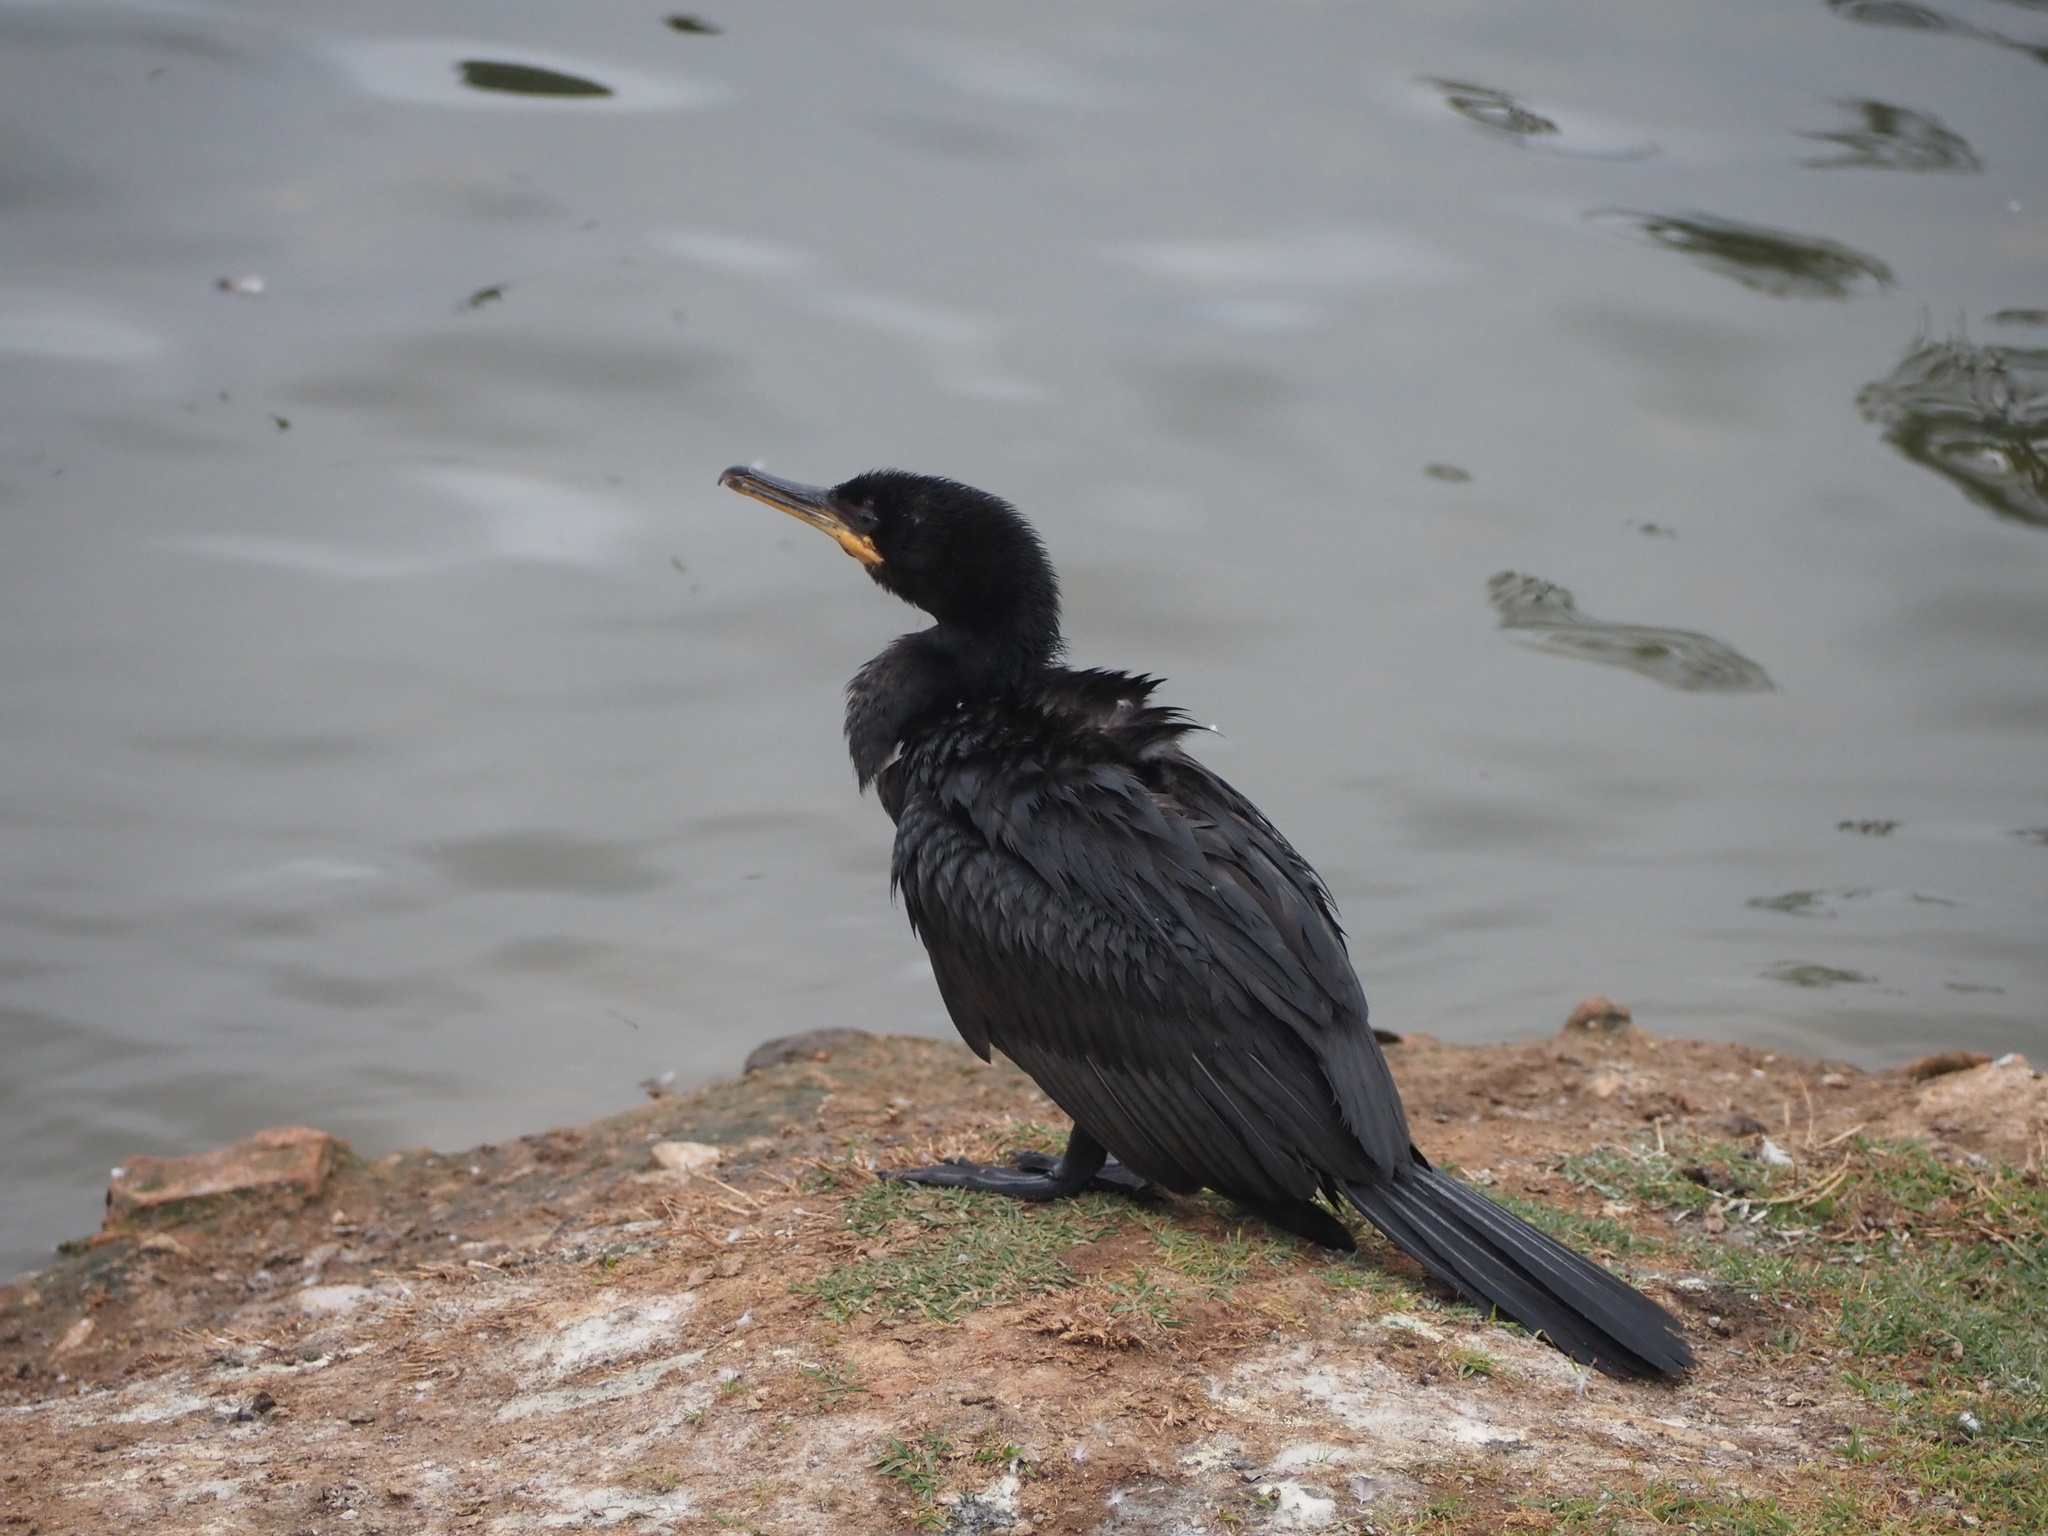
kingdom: Animalia
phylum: Chordata
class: Aves
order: Suliformes
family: Phalacrocoracidae
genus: Phalacrocorax
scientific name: Phalacrocorax brasilianus
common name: Neotropic cormorant
